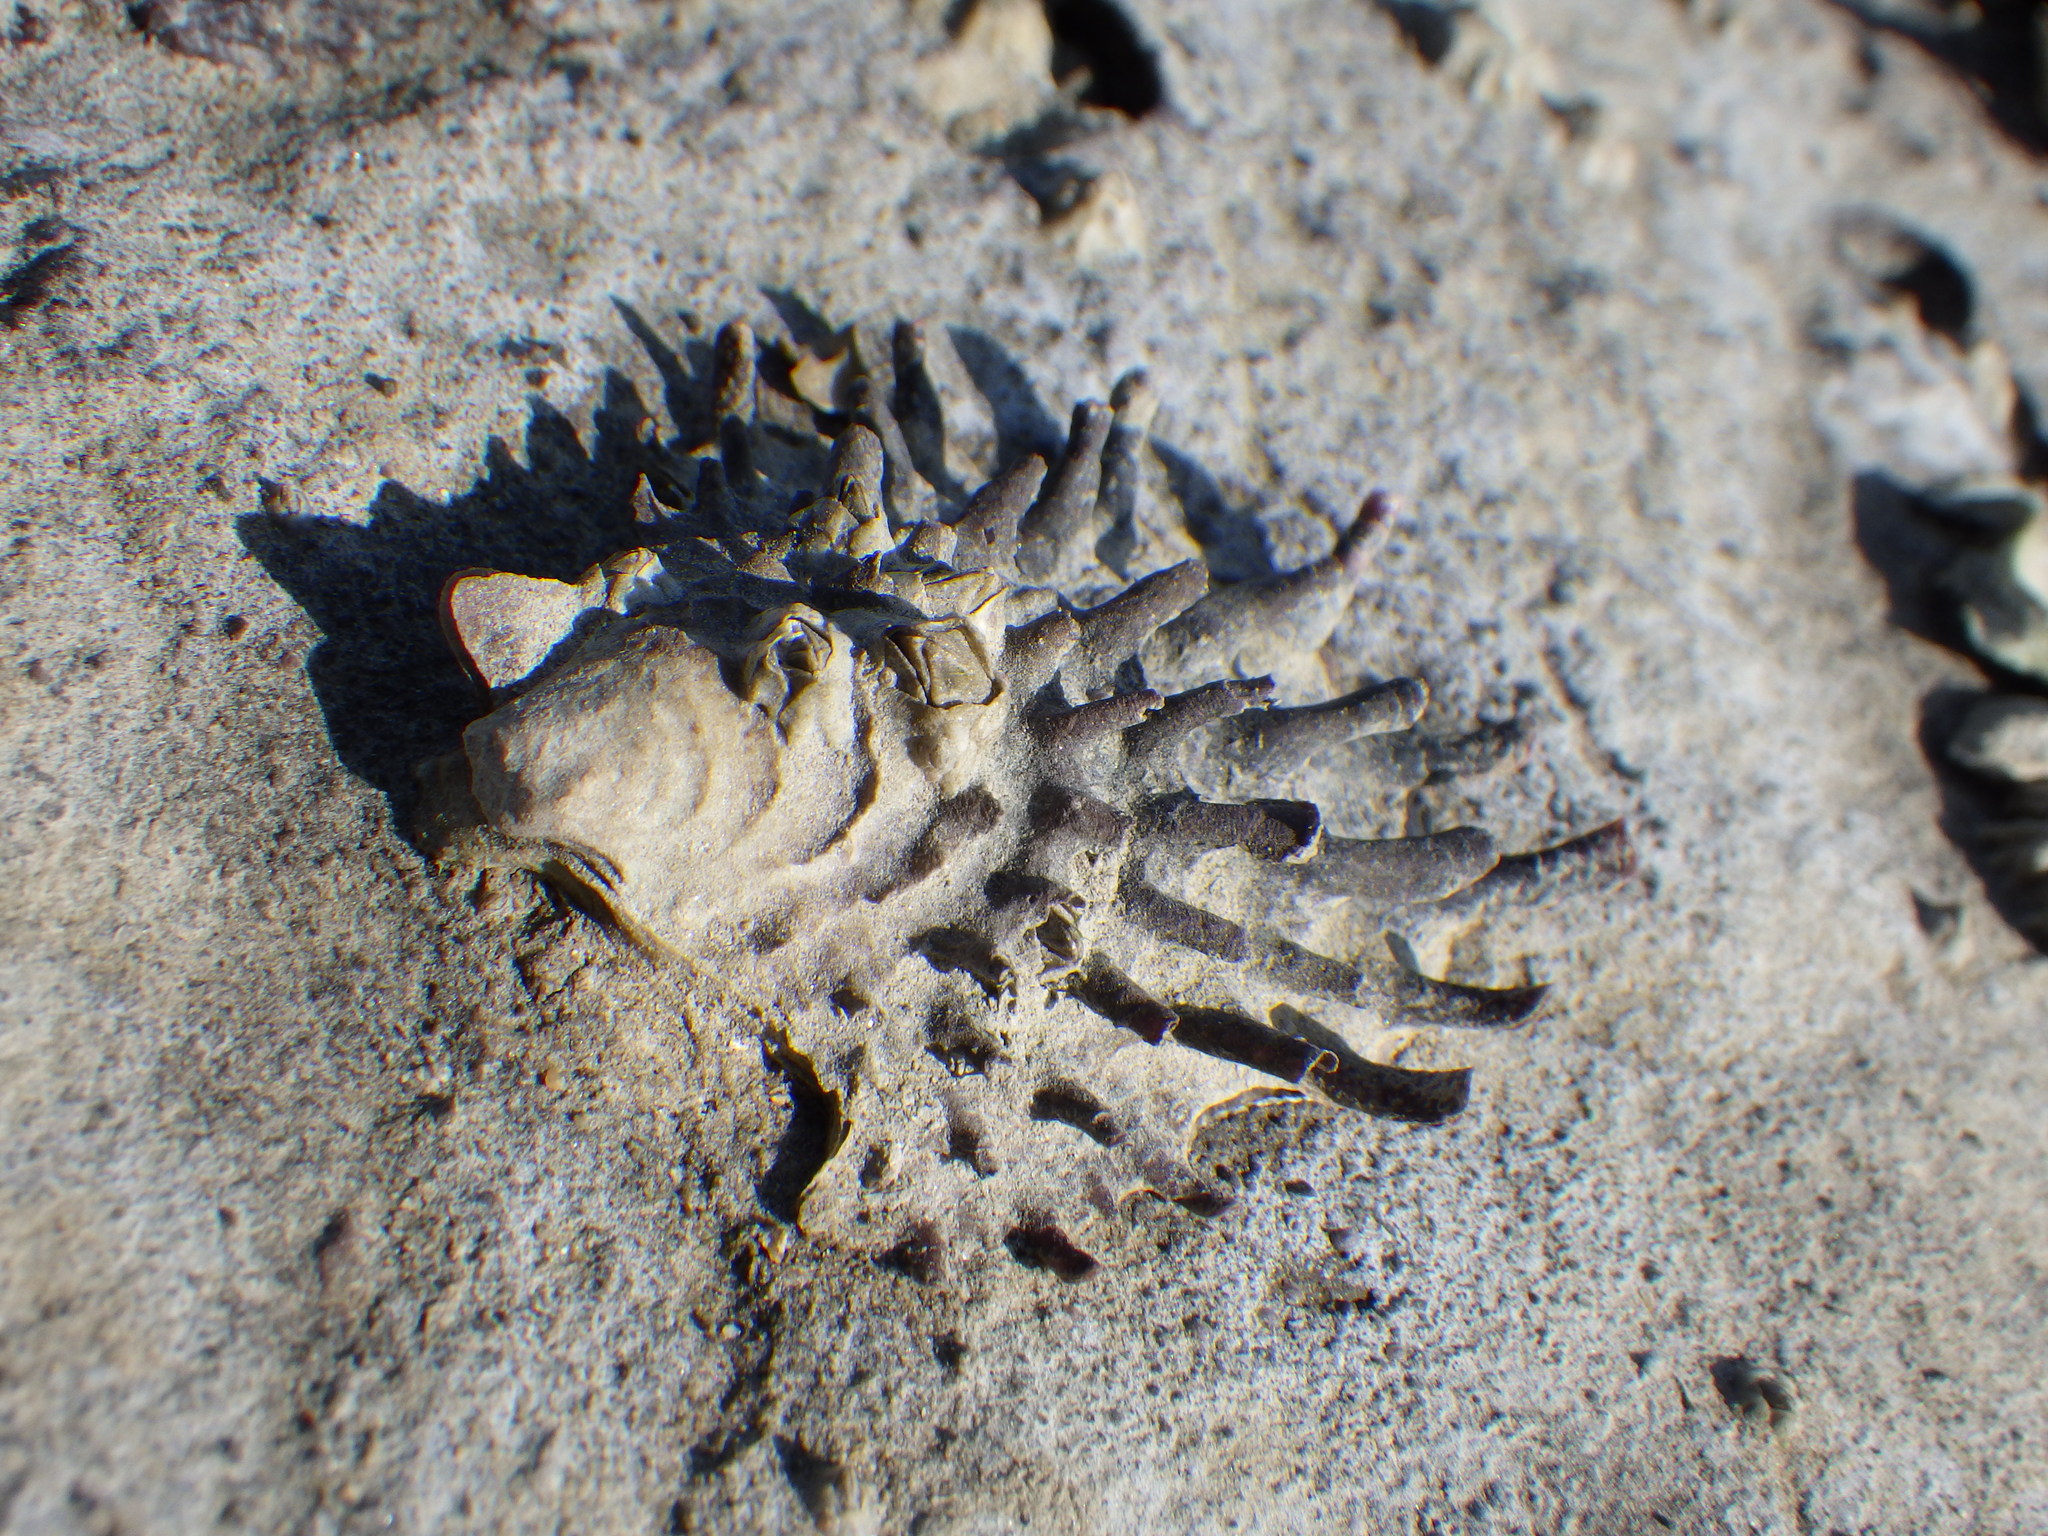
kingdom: Animalia
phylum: Mollusca
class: Bivalvia
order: Ostreida
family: Ostreidae
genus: Magallana
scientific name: Magallana gigas
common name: Pacific oyster
